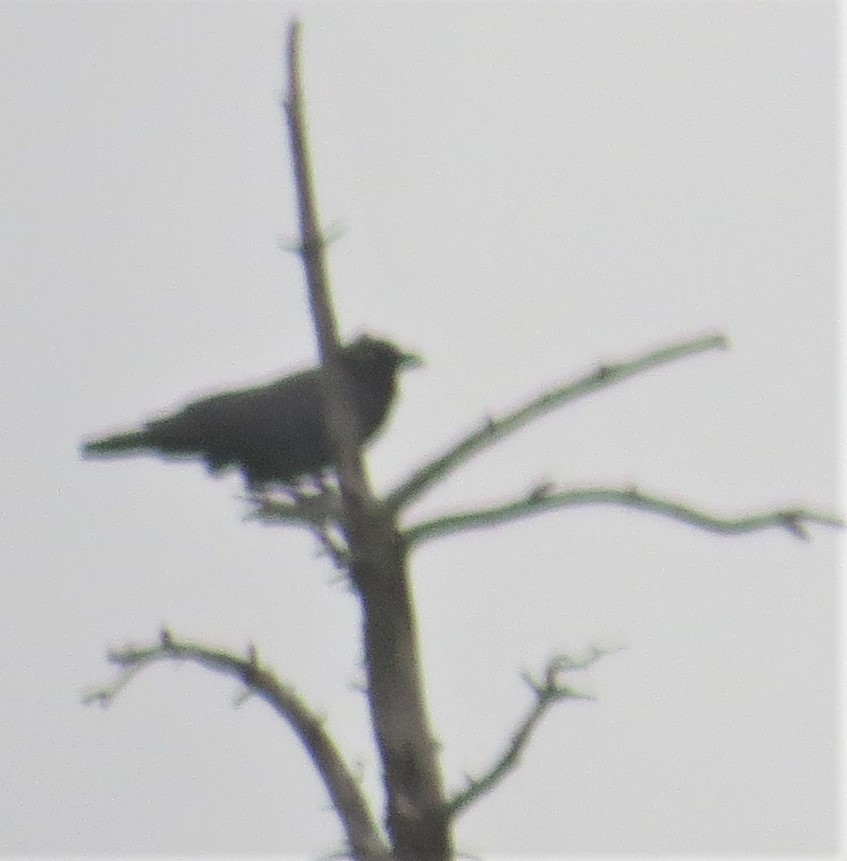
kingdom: Animalia
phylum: Chordata
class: Aves
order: Passeriformes
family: Corvidae
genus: Corvus
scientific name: Corvus brachyrhynchos
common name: American crow
